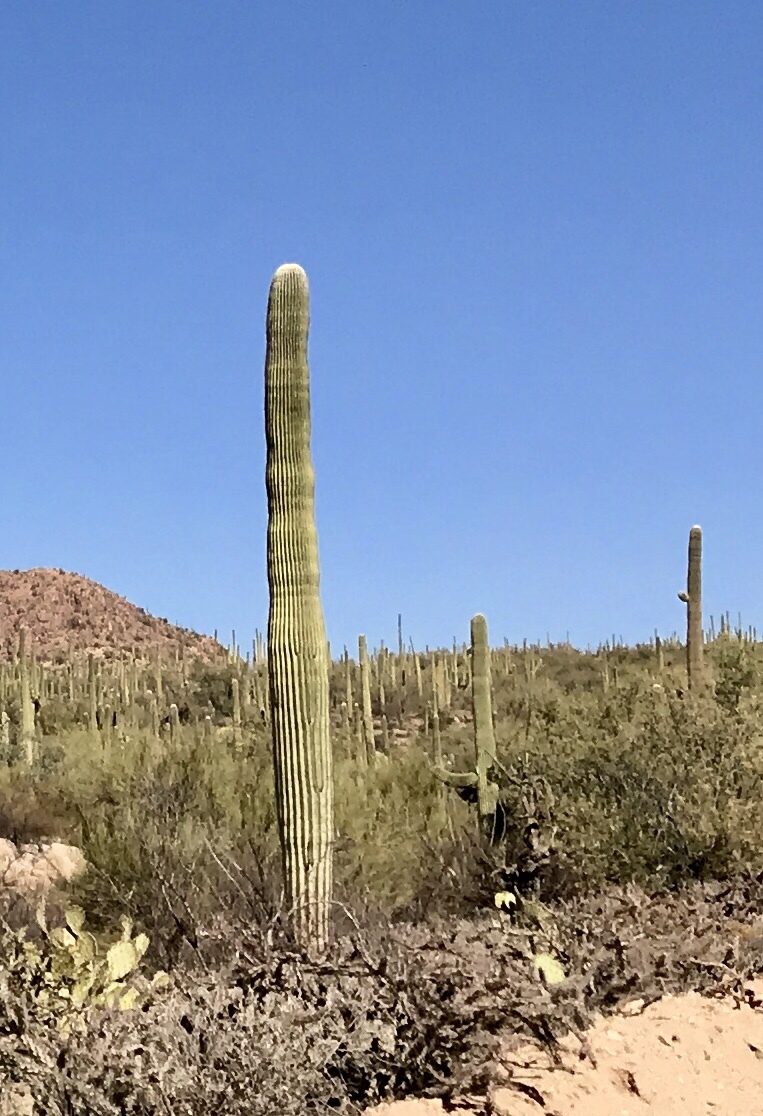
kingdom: Plantae
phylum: Tracheophyta
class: Magnoliopsida
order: Caryophyllales
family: Cactaceae
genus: Carnegiea
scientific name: Carnegiea gigantea
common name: Saguaro
